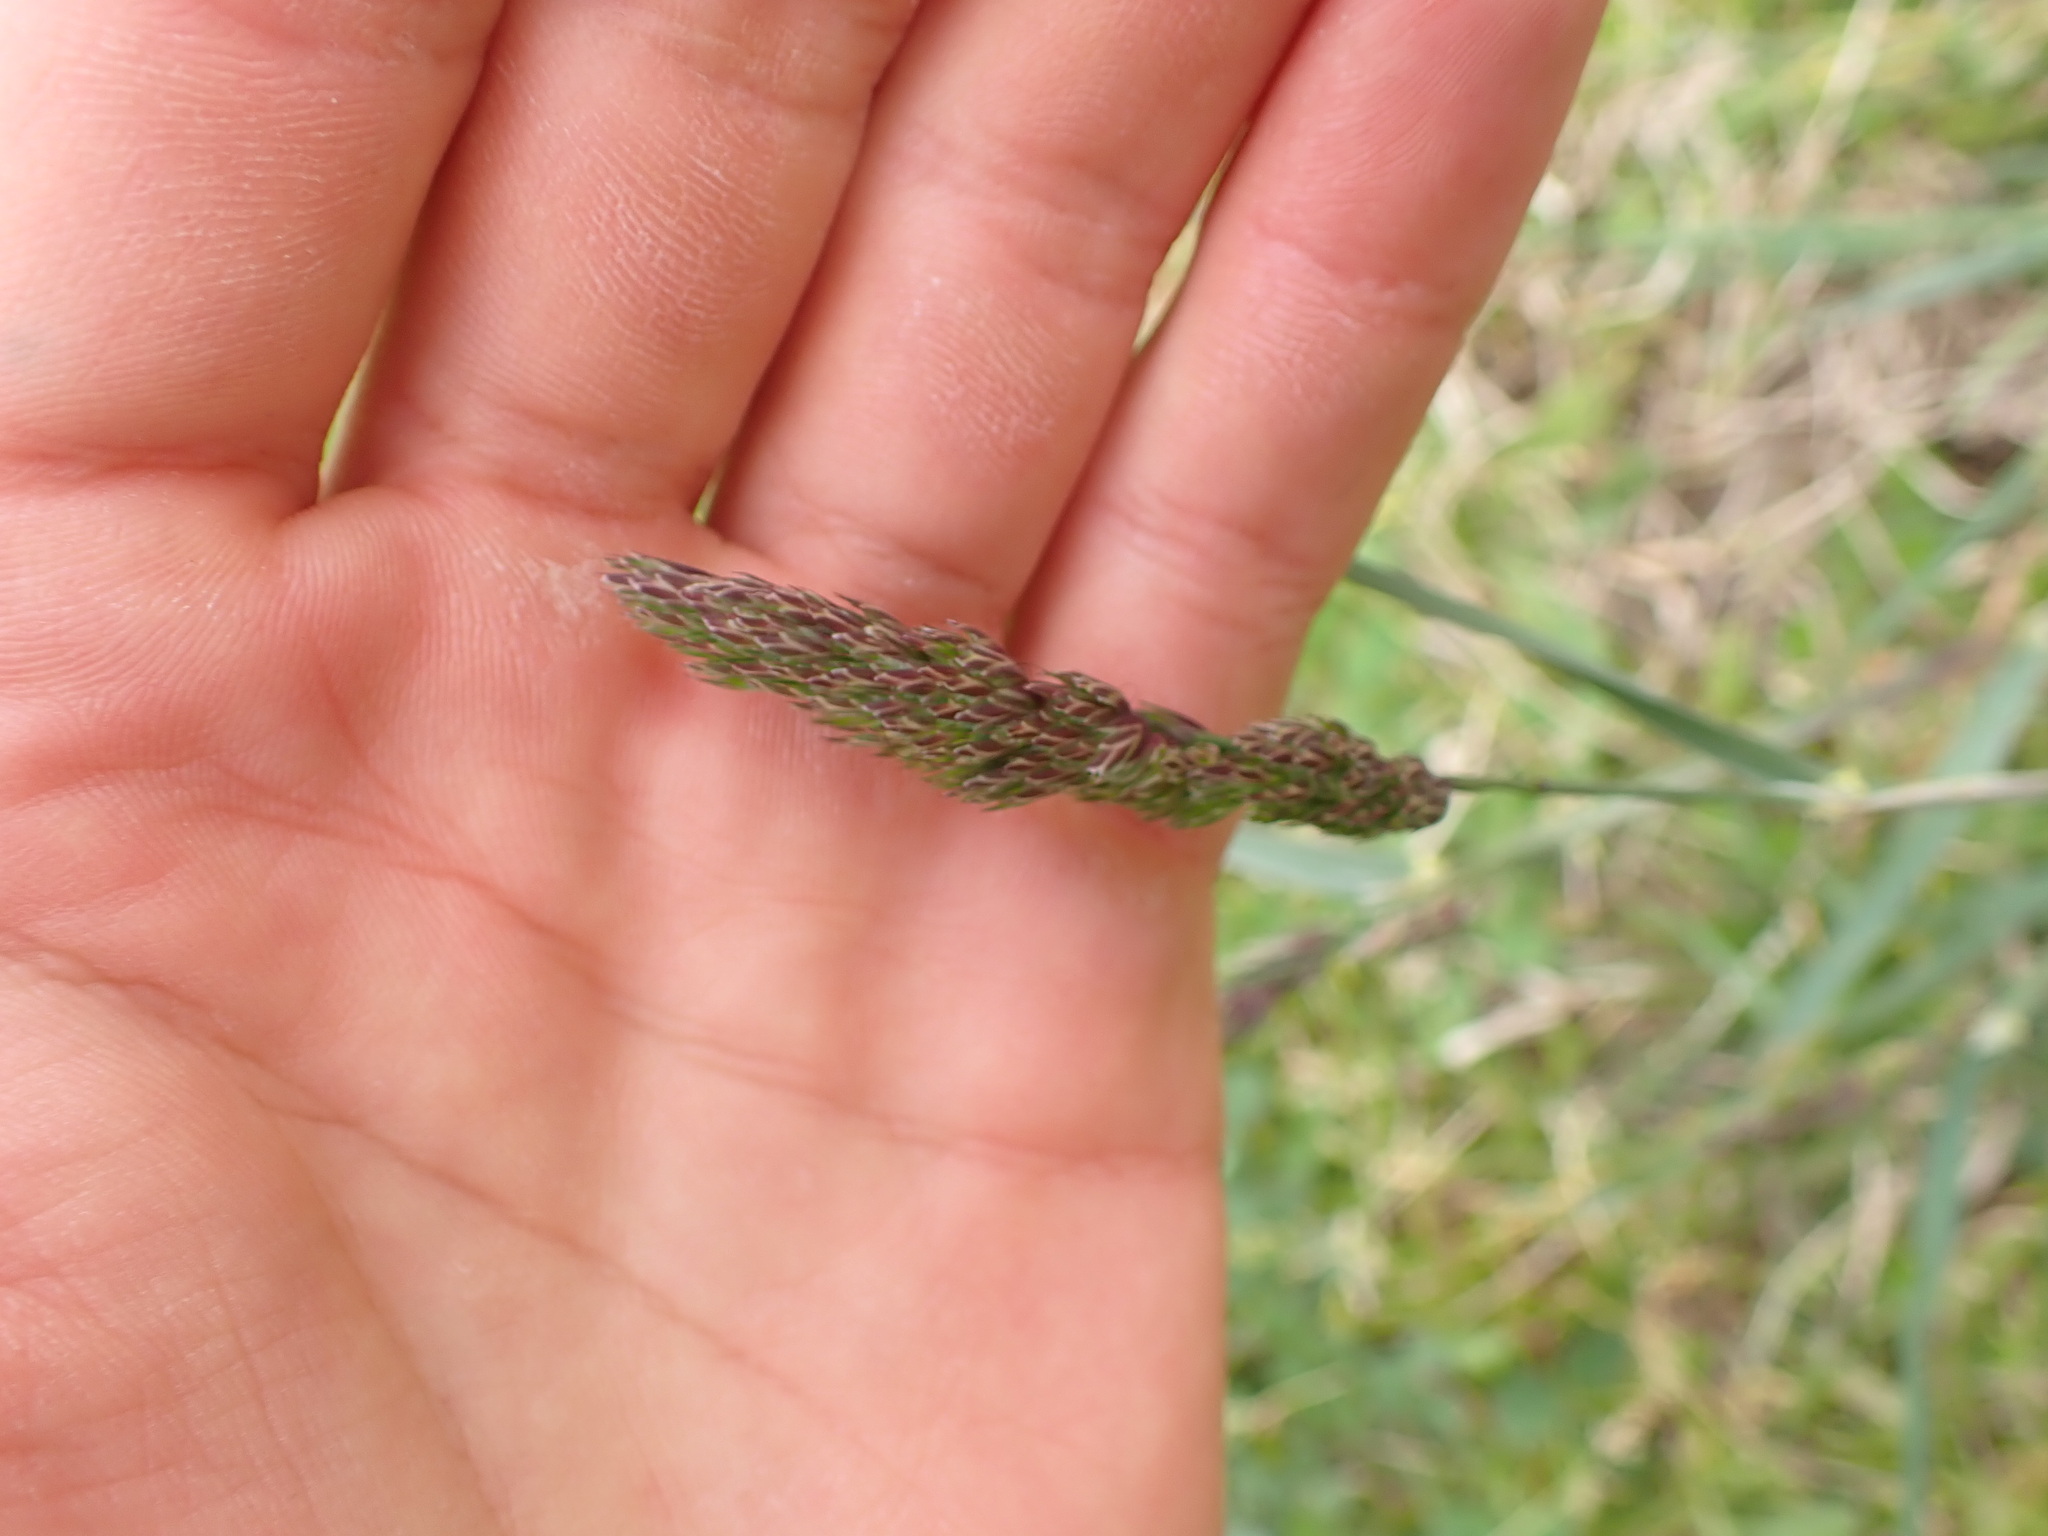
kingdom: Plantae
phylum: Tracheophyta
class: Liliopsida
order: Poales
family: Poaceae
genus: Dactylis
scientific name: Dactylis glomerata
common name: Orchardgrass
